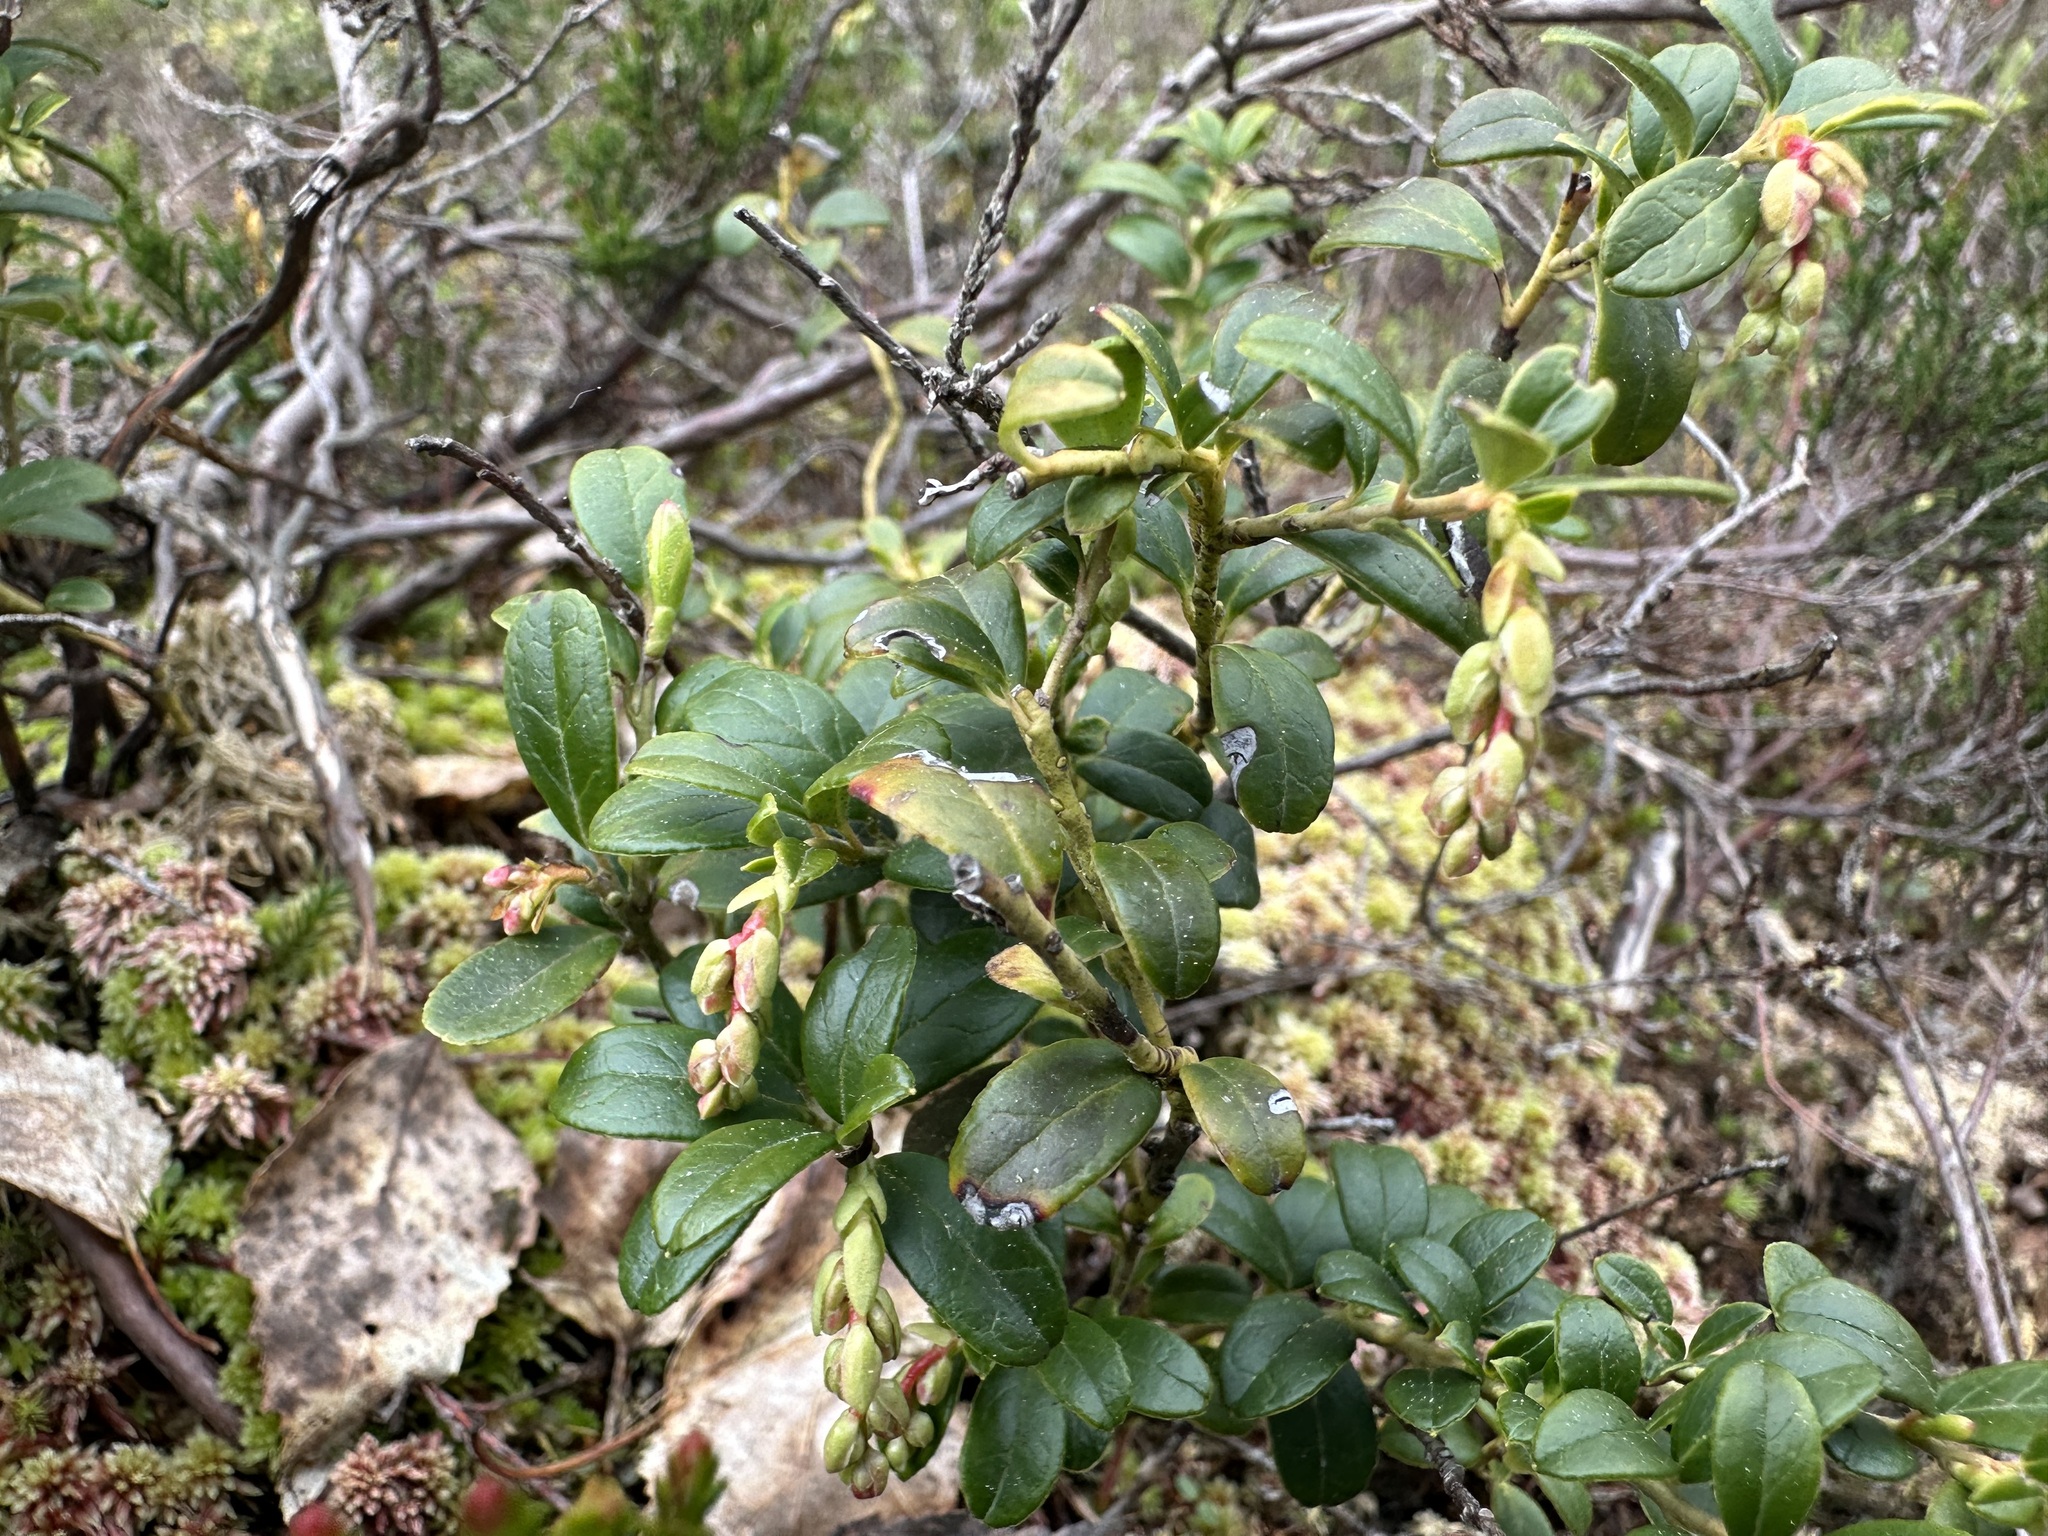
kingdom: Plantae
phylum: Tracheophyta
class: Magnoliopsida
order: Ericales
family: Ericaceae
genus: Vaccinium
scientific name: Vaccinium vitis-idaea
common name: Cowberry
